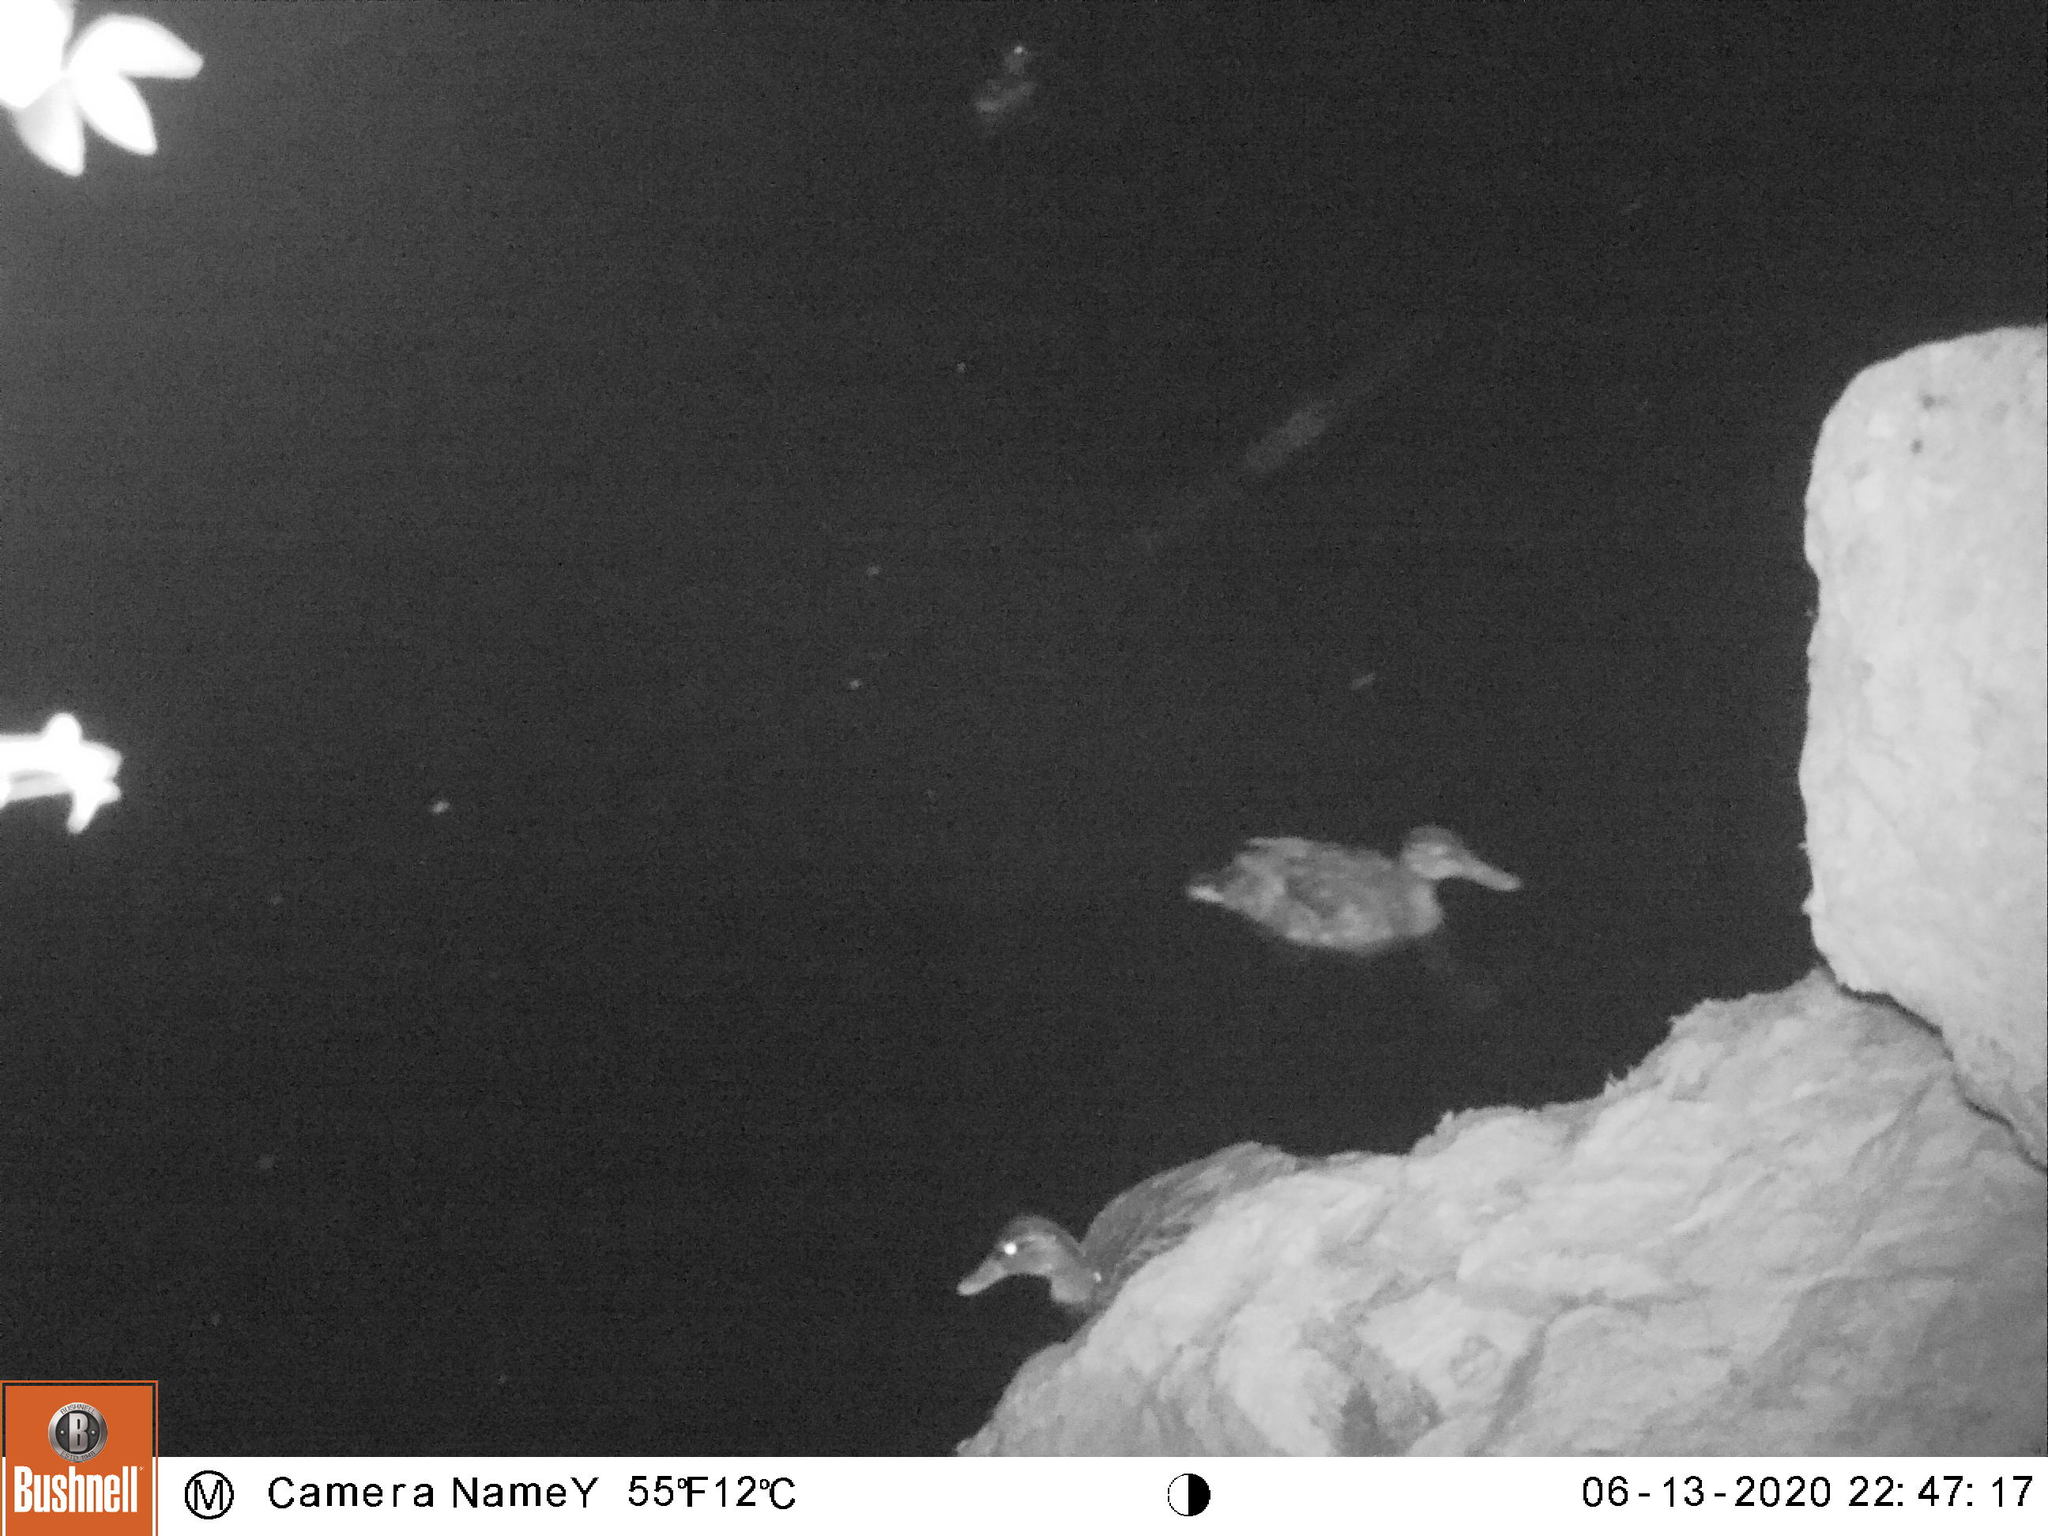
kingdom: Animalia
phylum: Chordata
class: Aves
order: Anseriformes
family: Anatidae
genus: Anas
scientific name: Anas platyrhynchos
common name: Mallard
